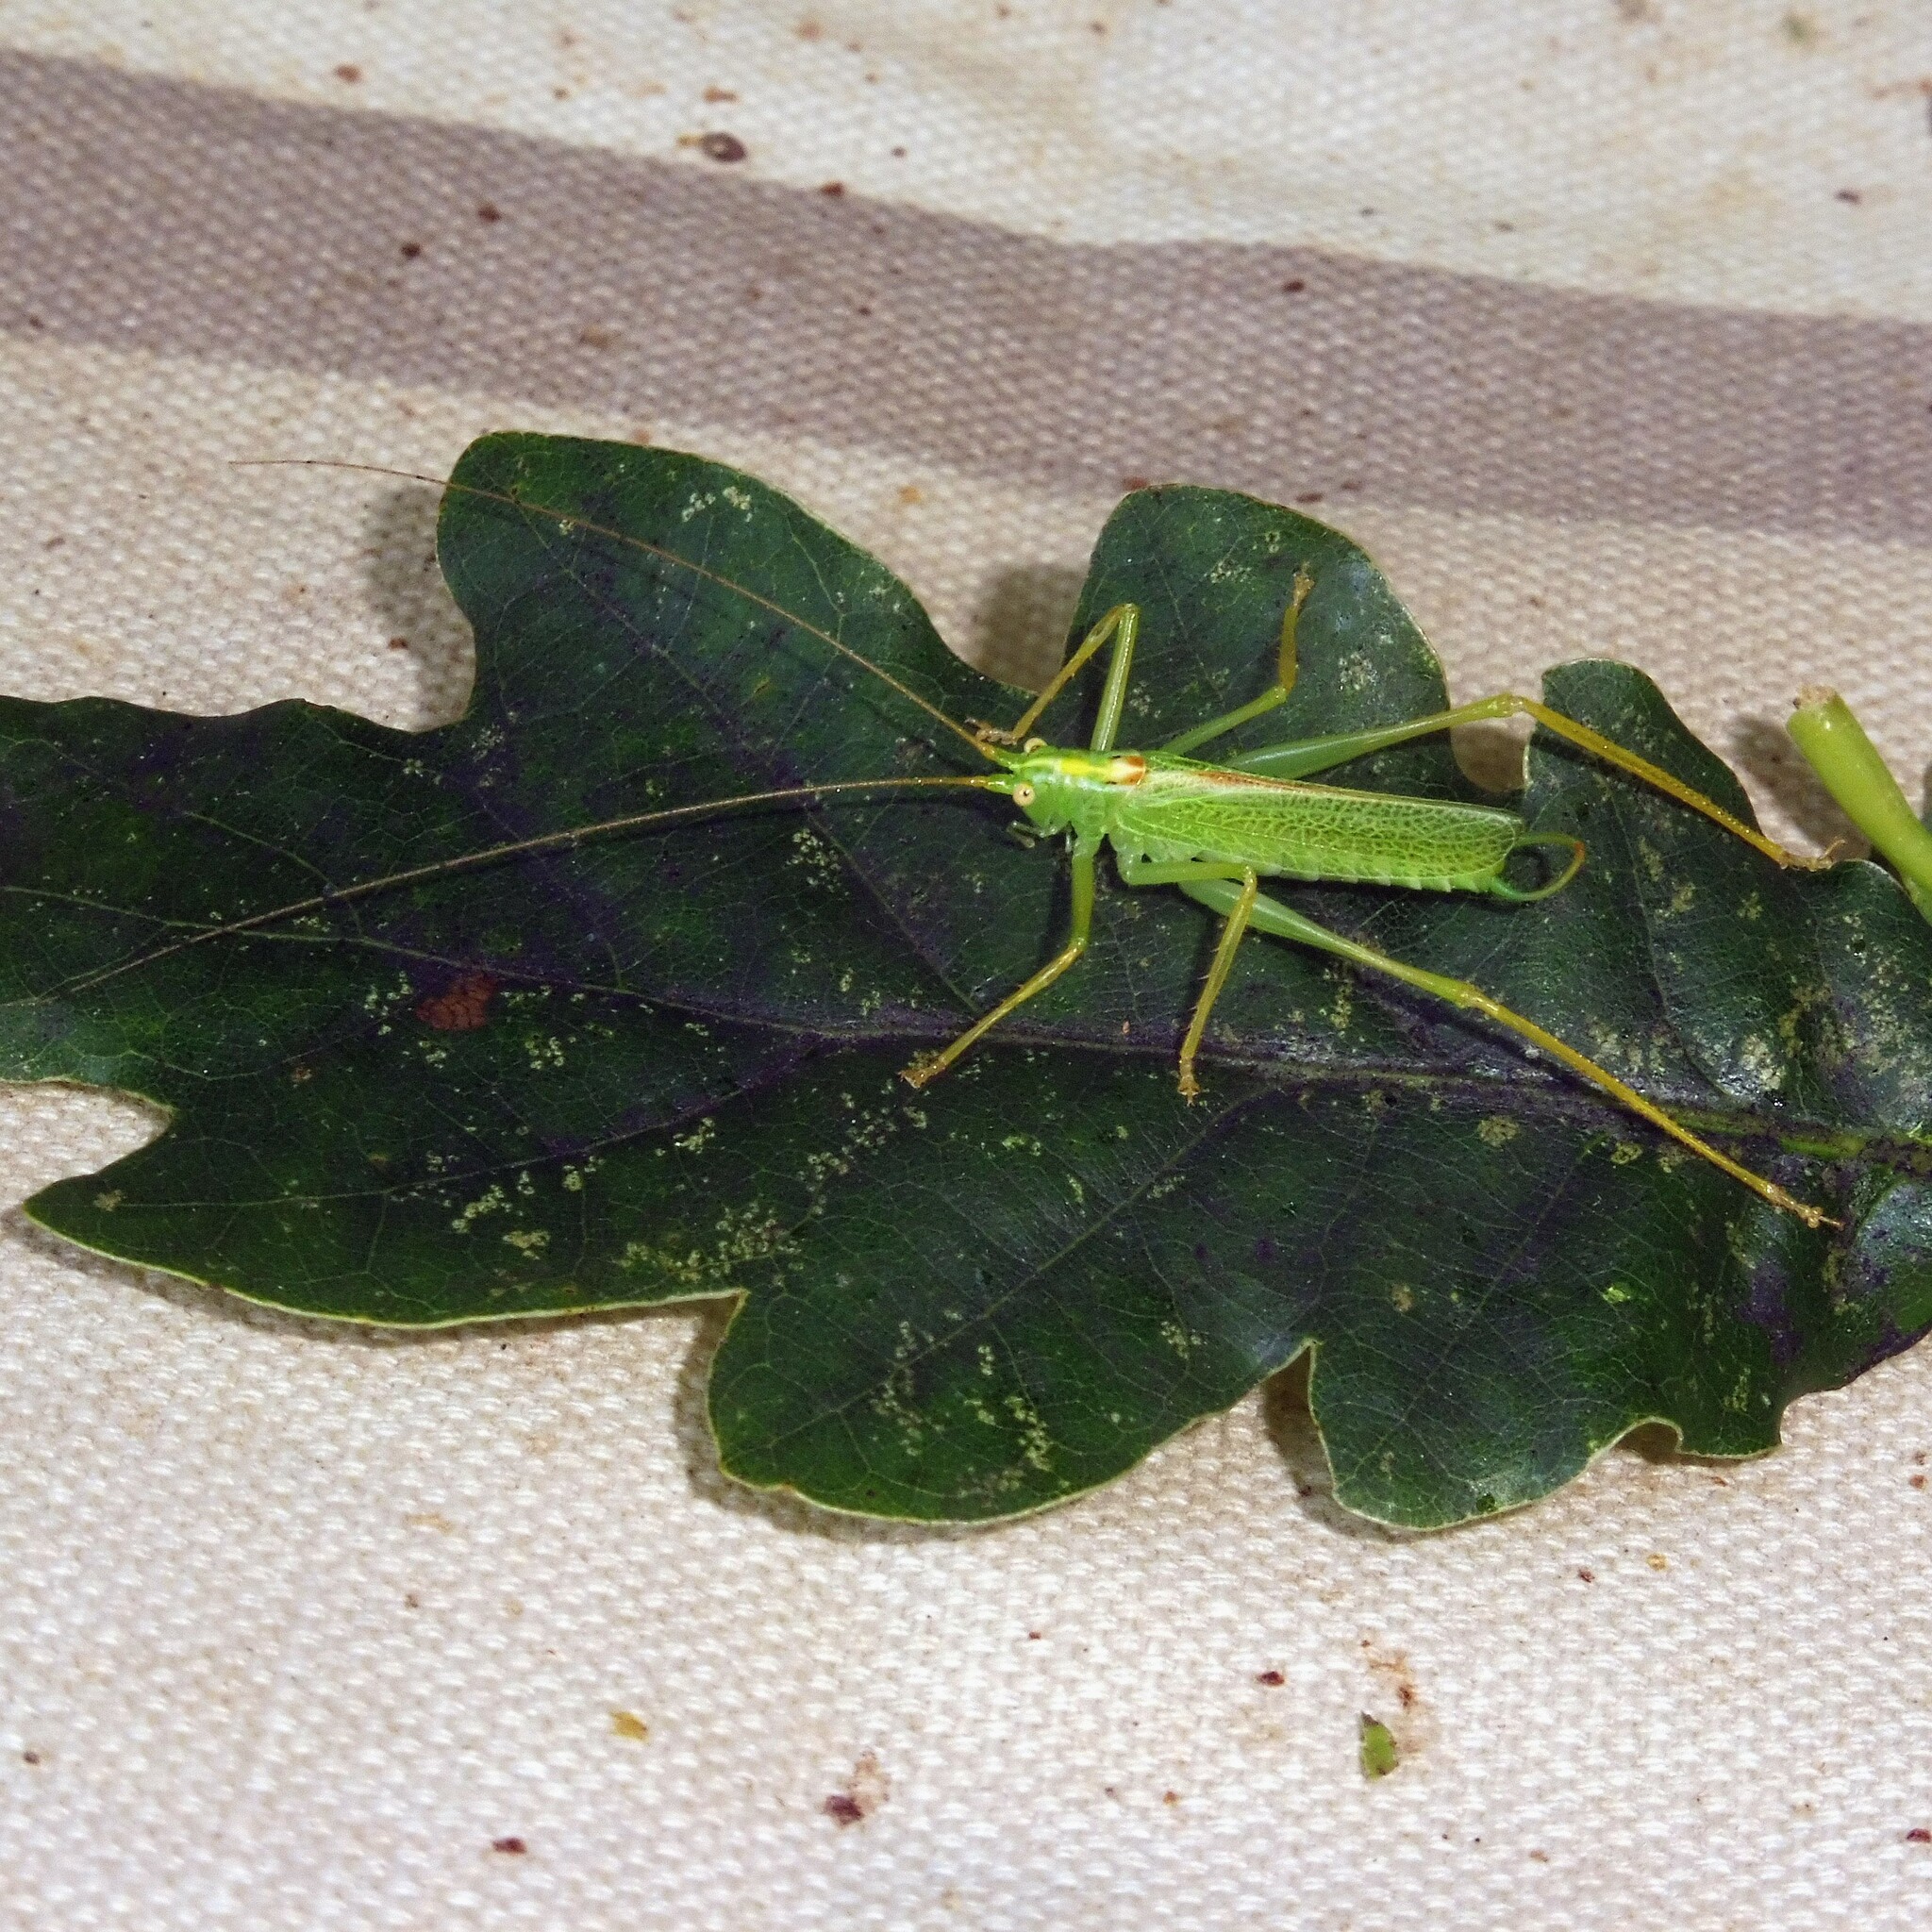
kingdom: Animalia
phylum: Arthropoda
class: Insecta
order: Orthoptera
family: Tettigoniidae
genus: Meconema
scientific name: Meconema thalassinum
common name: Oak bush-cricket
